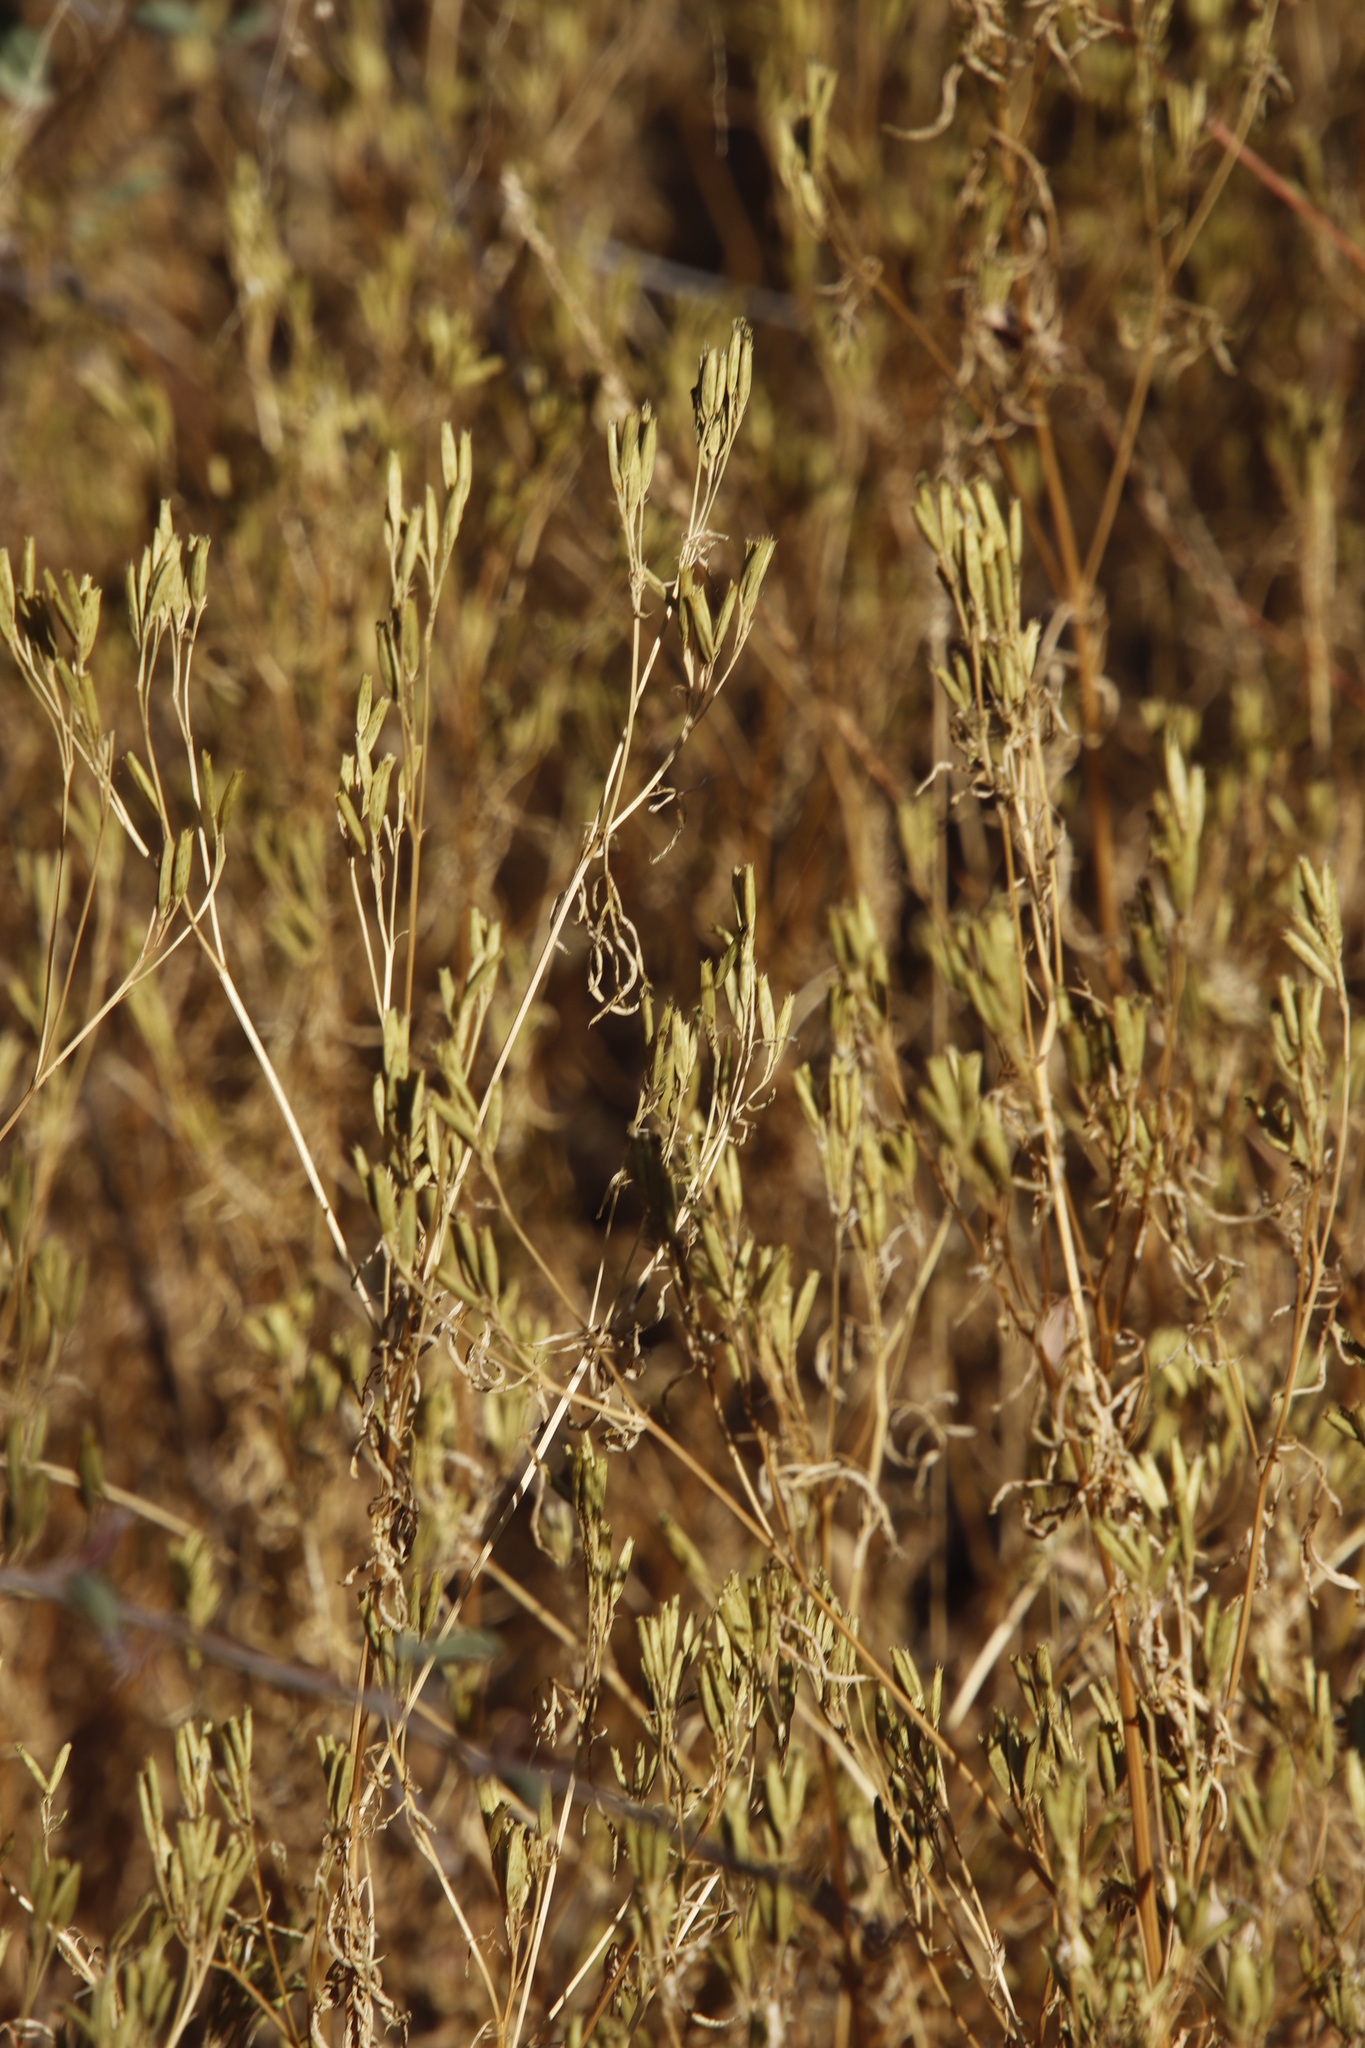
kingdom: Plantae
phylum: Tracheophyta
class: Magnoliopsida
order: Asterales
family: Asteraceae
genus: Tagetes
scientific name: Tagetes minuta
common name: Muster john henry
